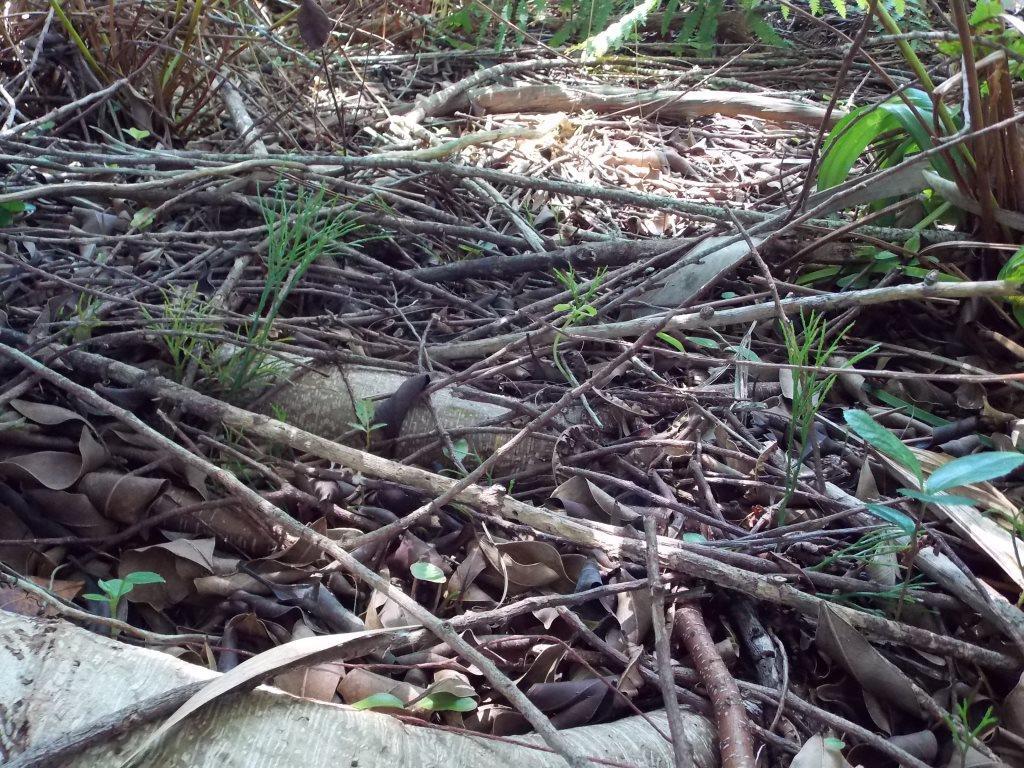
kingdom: Plantae
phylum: Tracheophyta
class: Polypodiopsida
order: Psilotales
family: Psilotaceae
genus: Psilotum
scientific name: Psilotum nudum
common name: Skeleton fork fern
